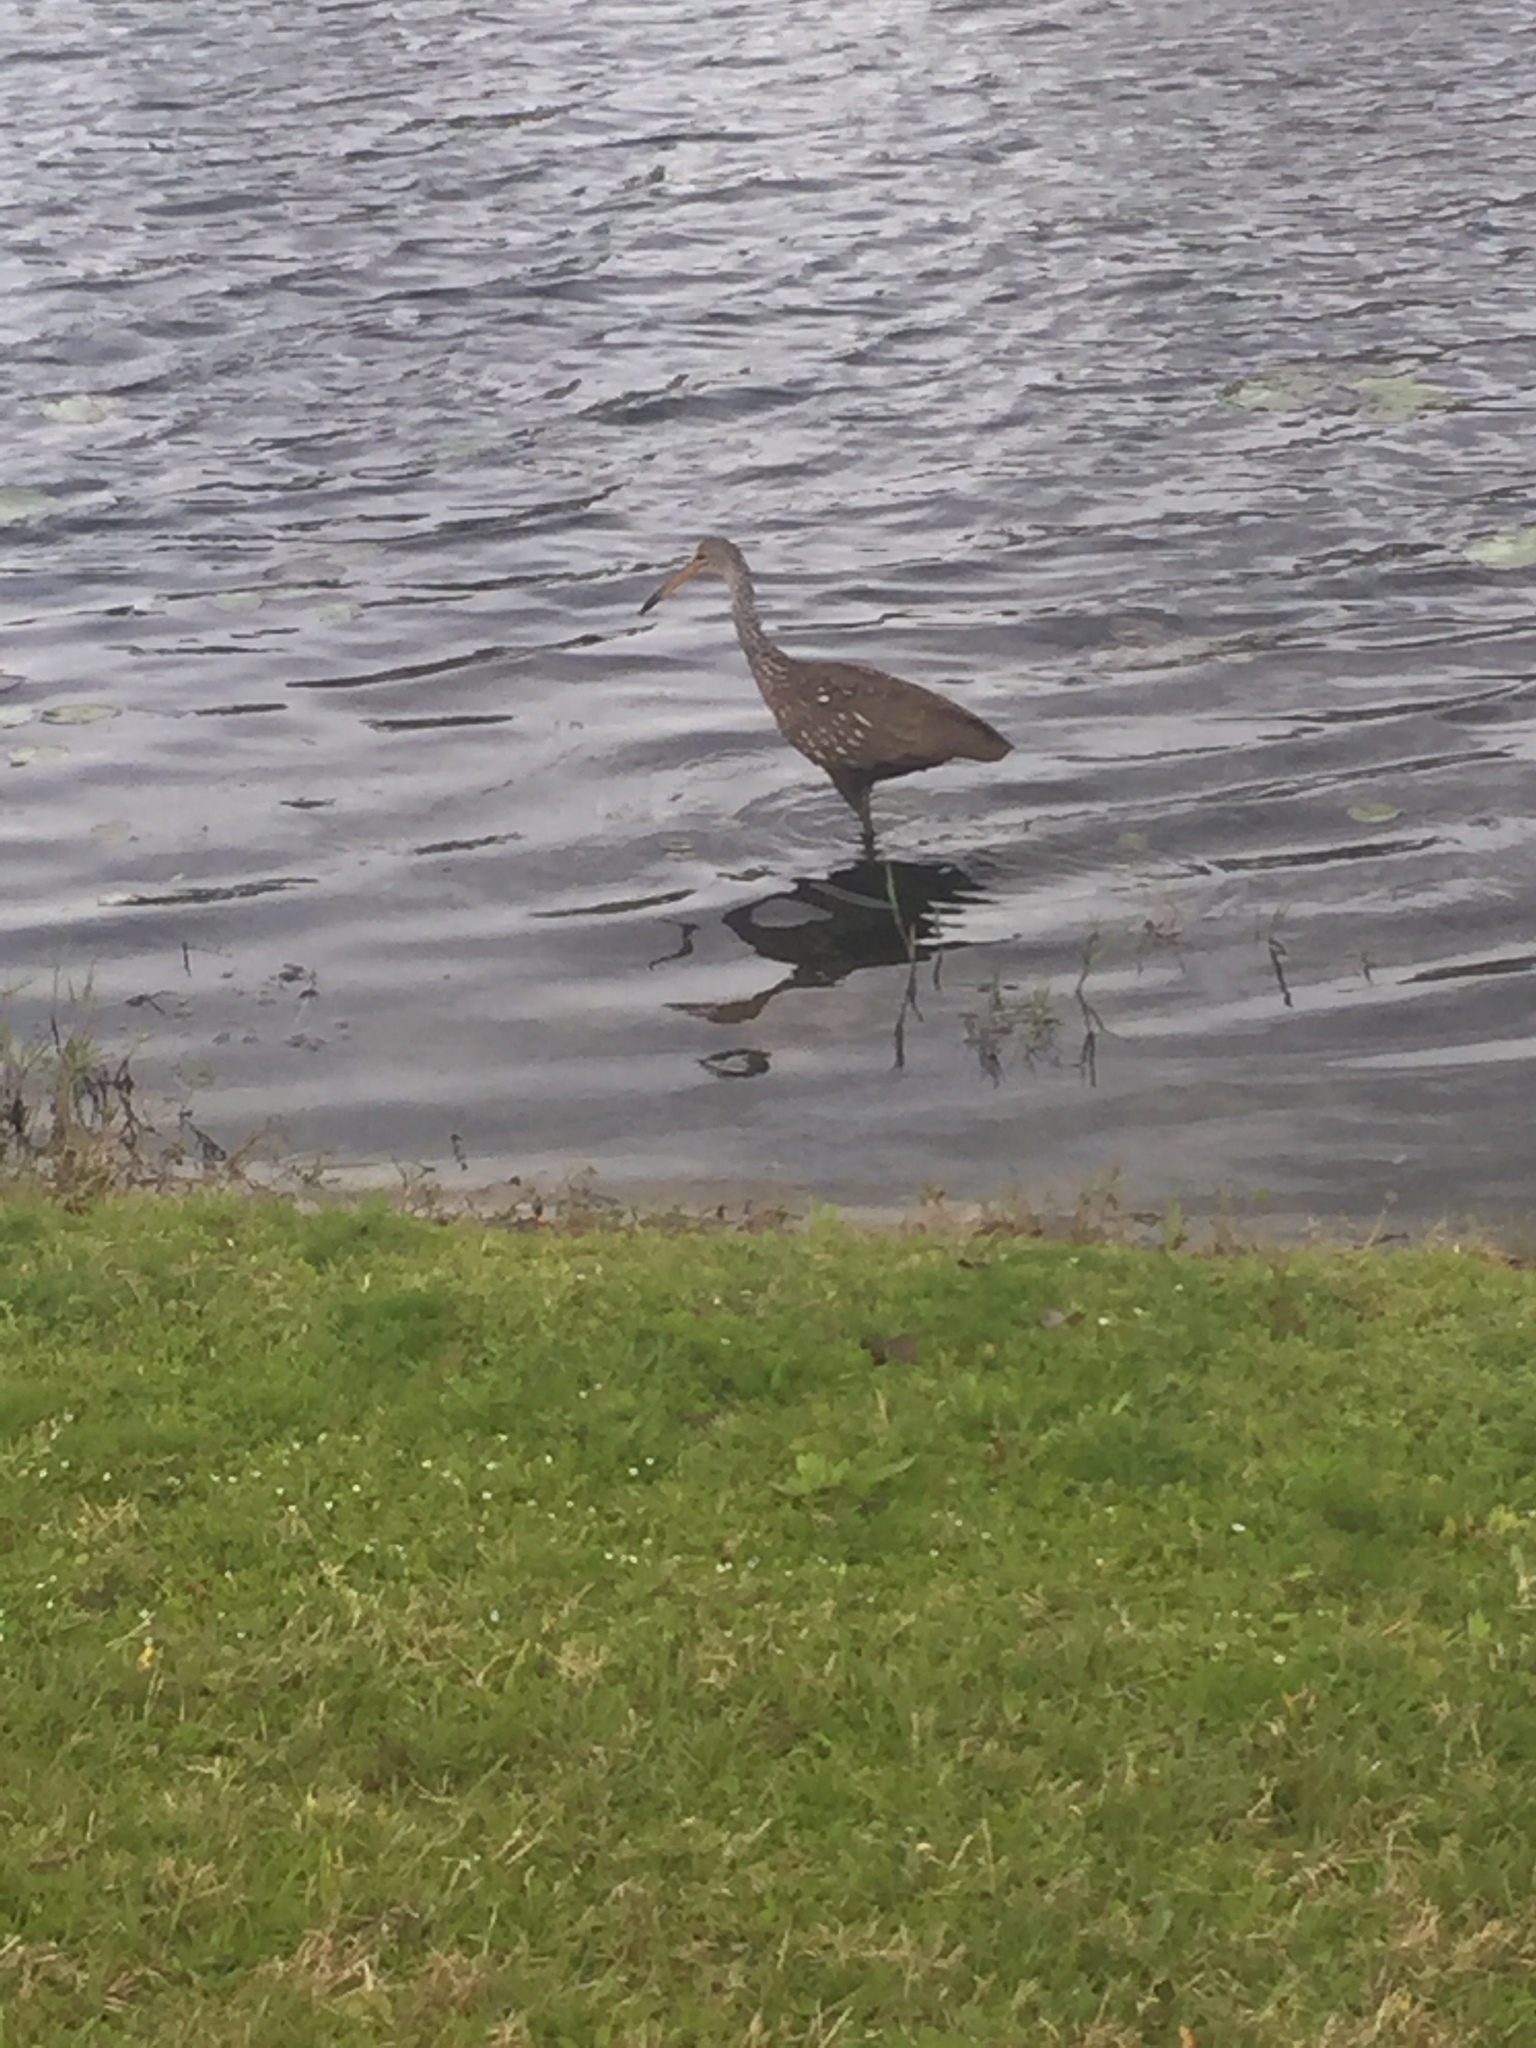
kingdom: Animalia
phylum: Chordata
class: Aves
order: Gruiformes
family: Aramidae
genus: Aramus
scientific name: Aramus guarauna
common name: Limpkin
